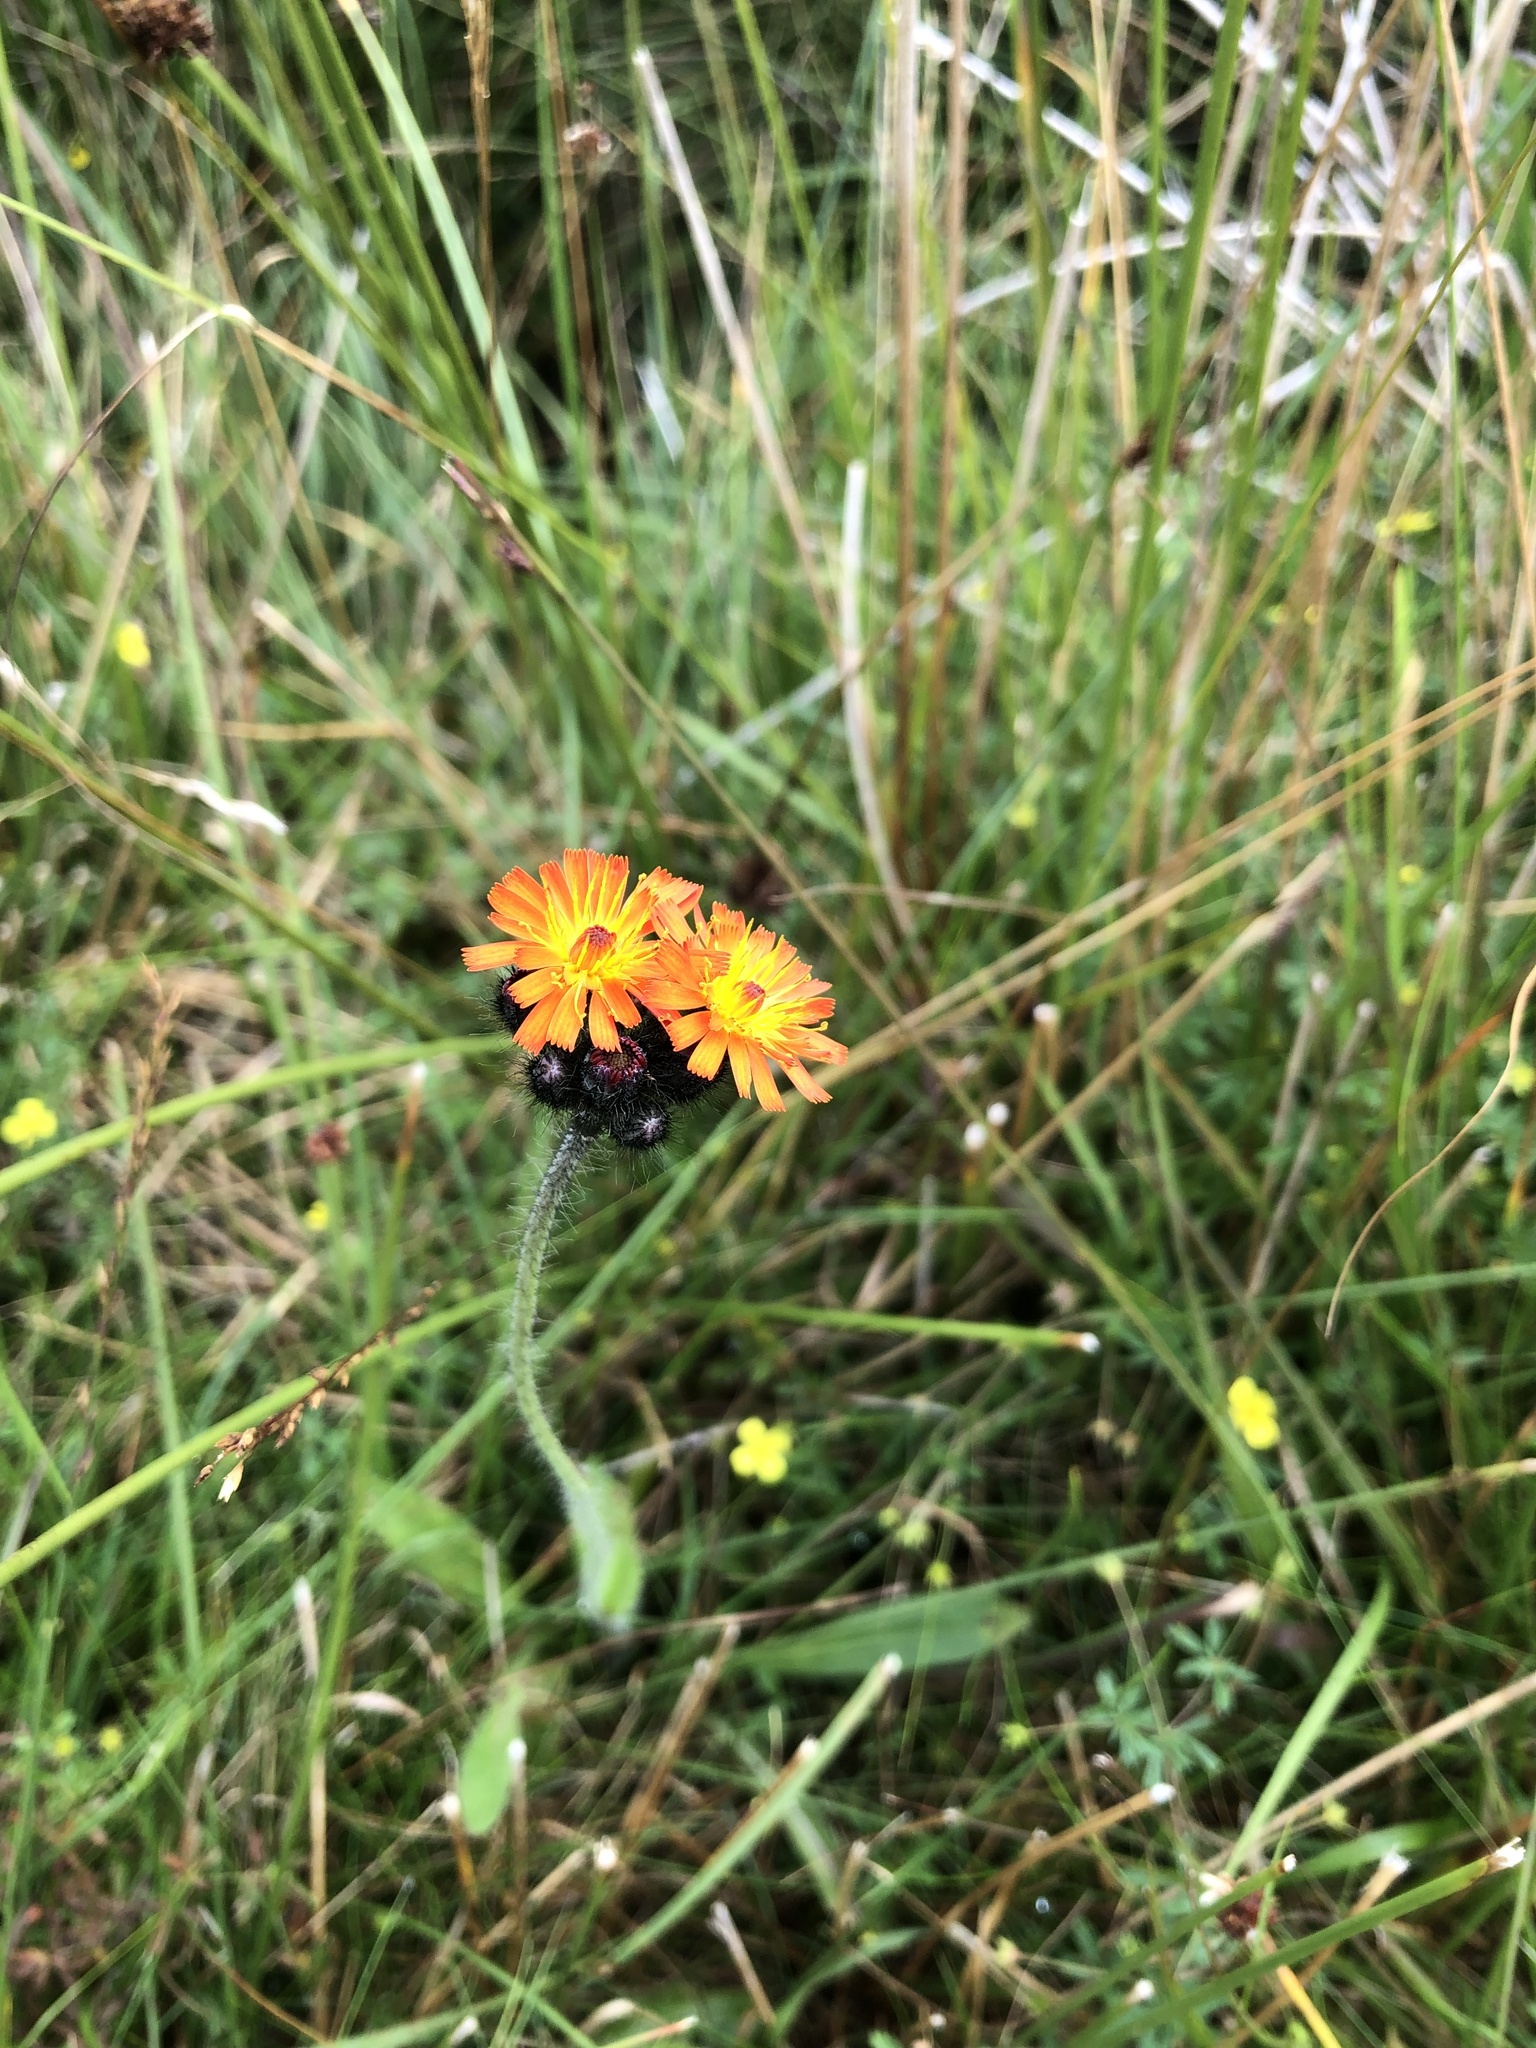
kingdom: Plantae
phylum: Tracheophyta
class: Magnoliopsida
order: Asterales
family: Asteraceae
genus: Pilosella
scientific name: Pilosella aurantiaca
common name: Fox-and-cubs
